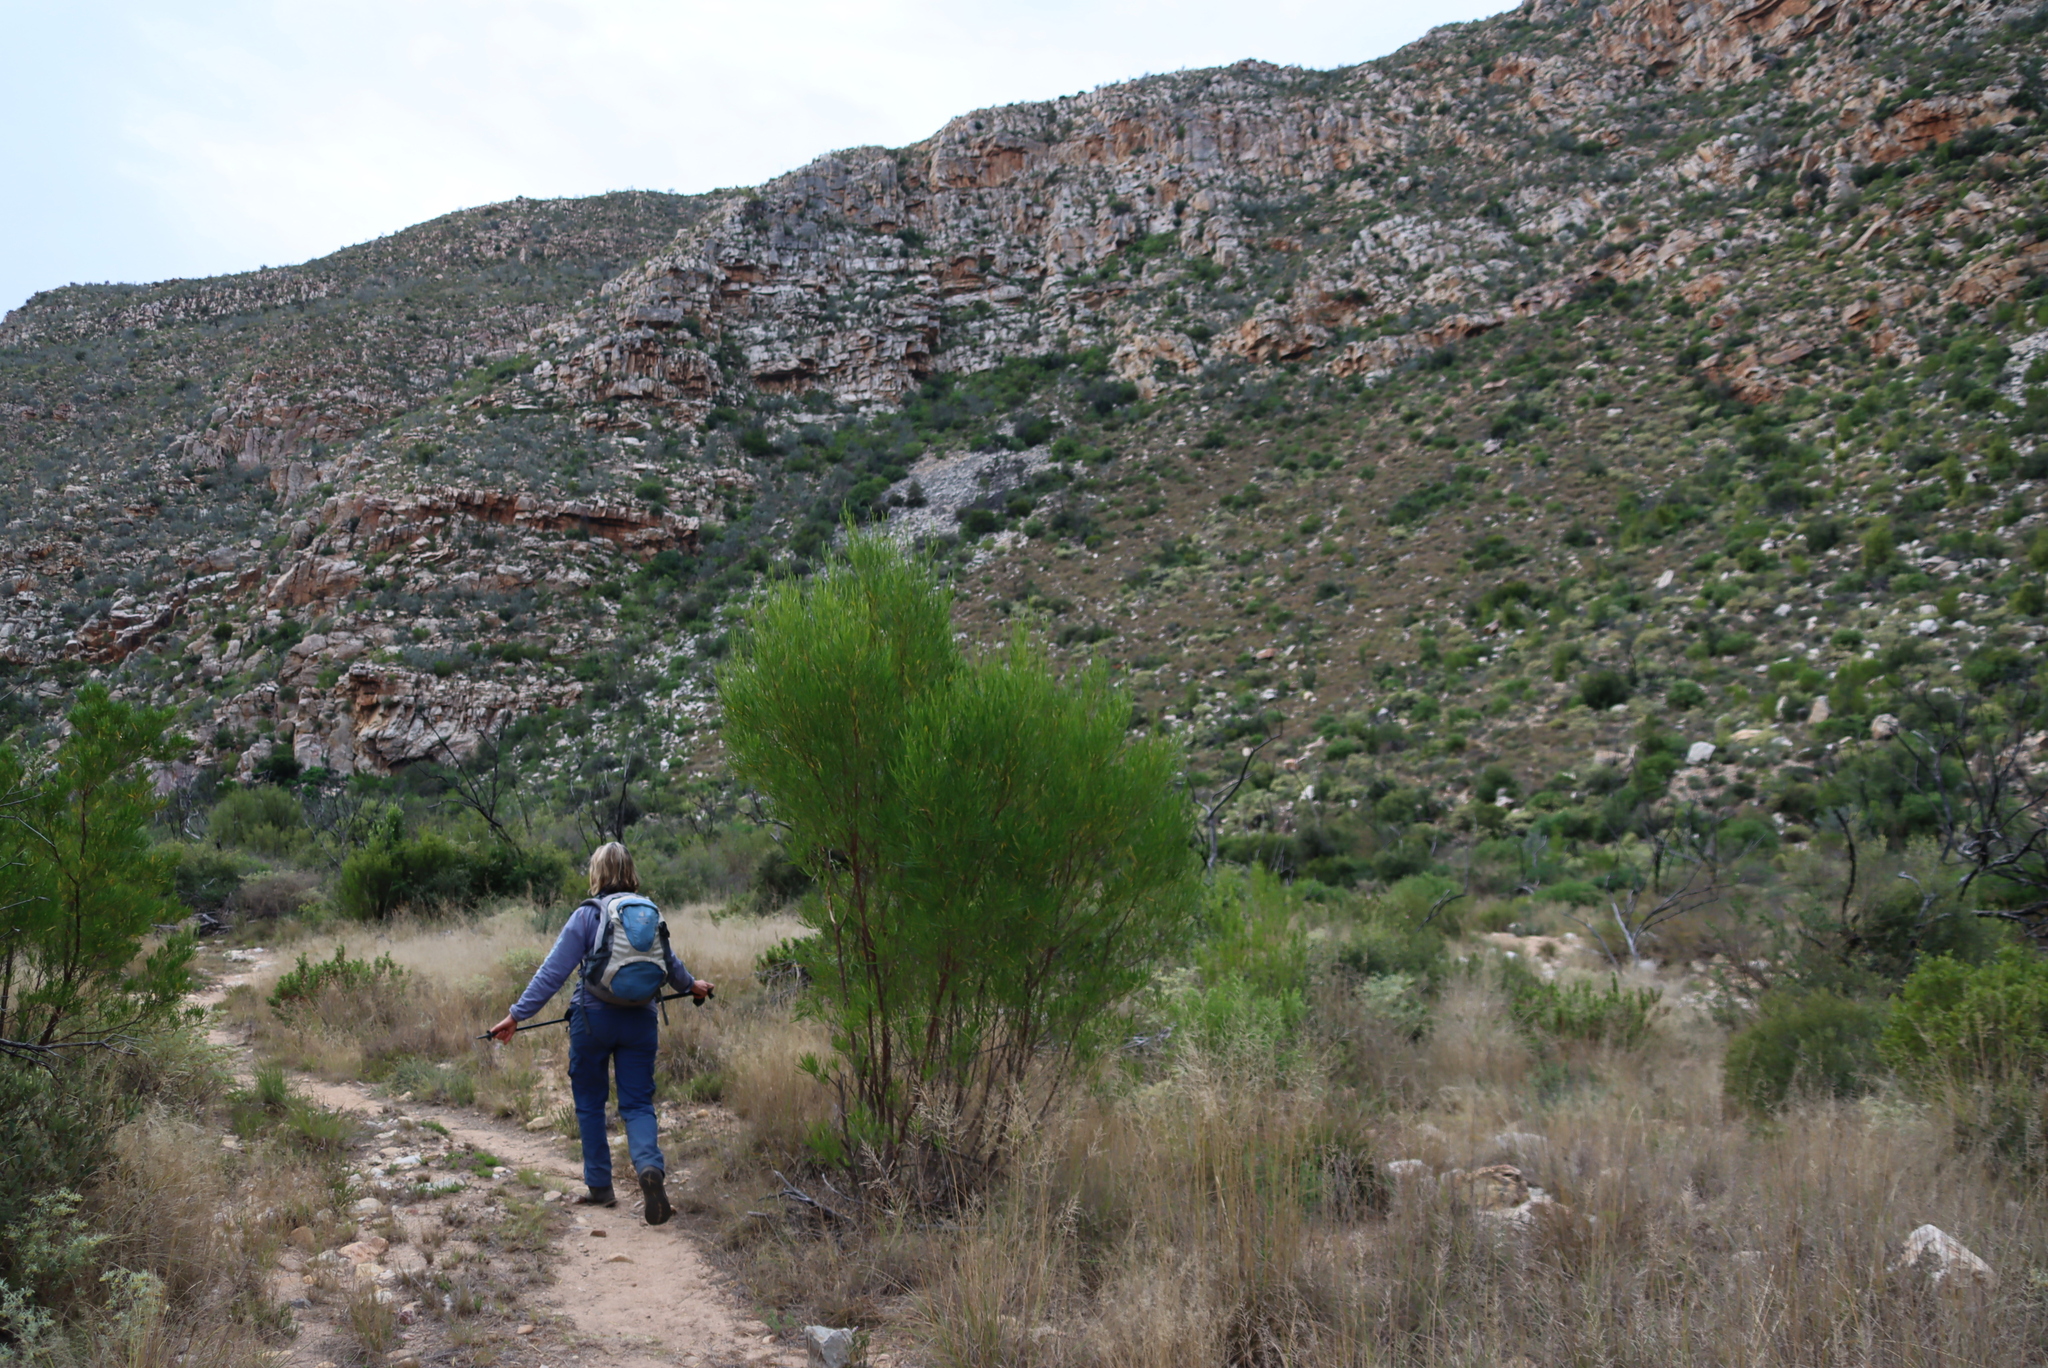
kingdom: Plantae
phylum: Tracheophyta
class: Magnoliopsida
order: Sapindales
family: Sapindaceae
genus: Dodonaea
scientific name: Dodonaea viscosa
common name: Hopbush
